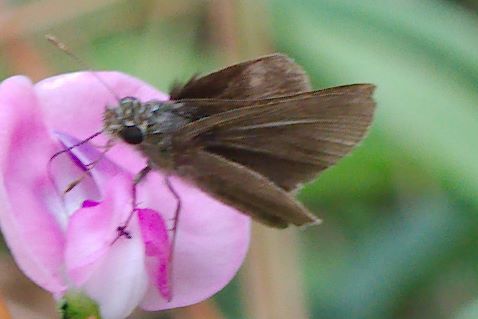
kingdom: Animalia
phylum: Arthropoda
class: Insecta
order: Lepidoptera
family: Hesperiidae
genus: Nastra
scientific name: Nastra lherminier
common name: Swarthy skipper
